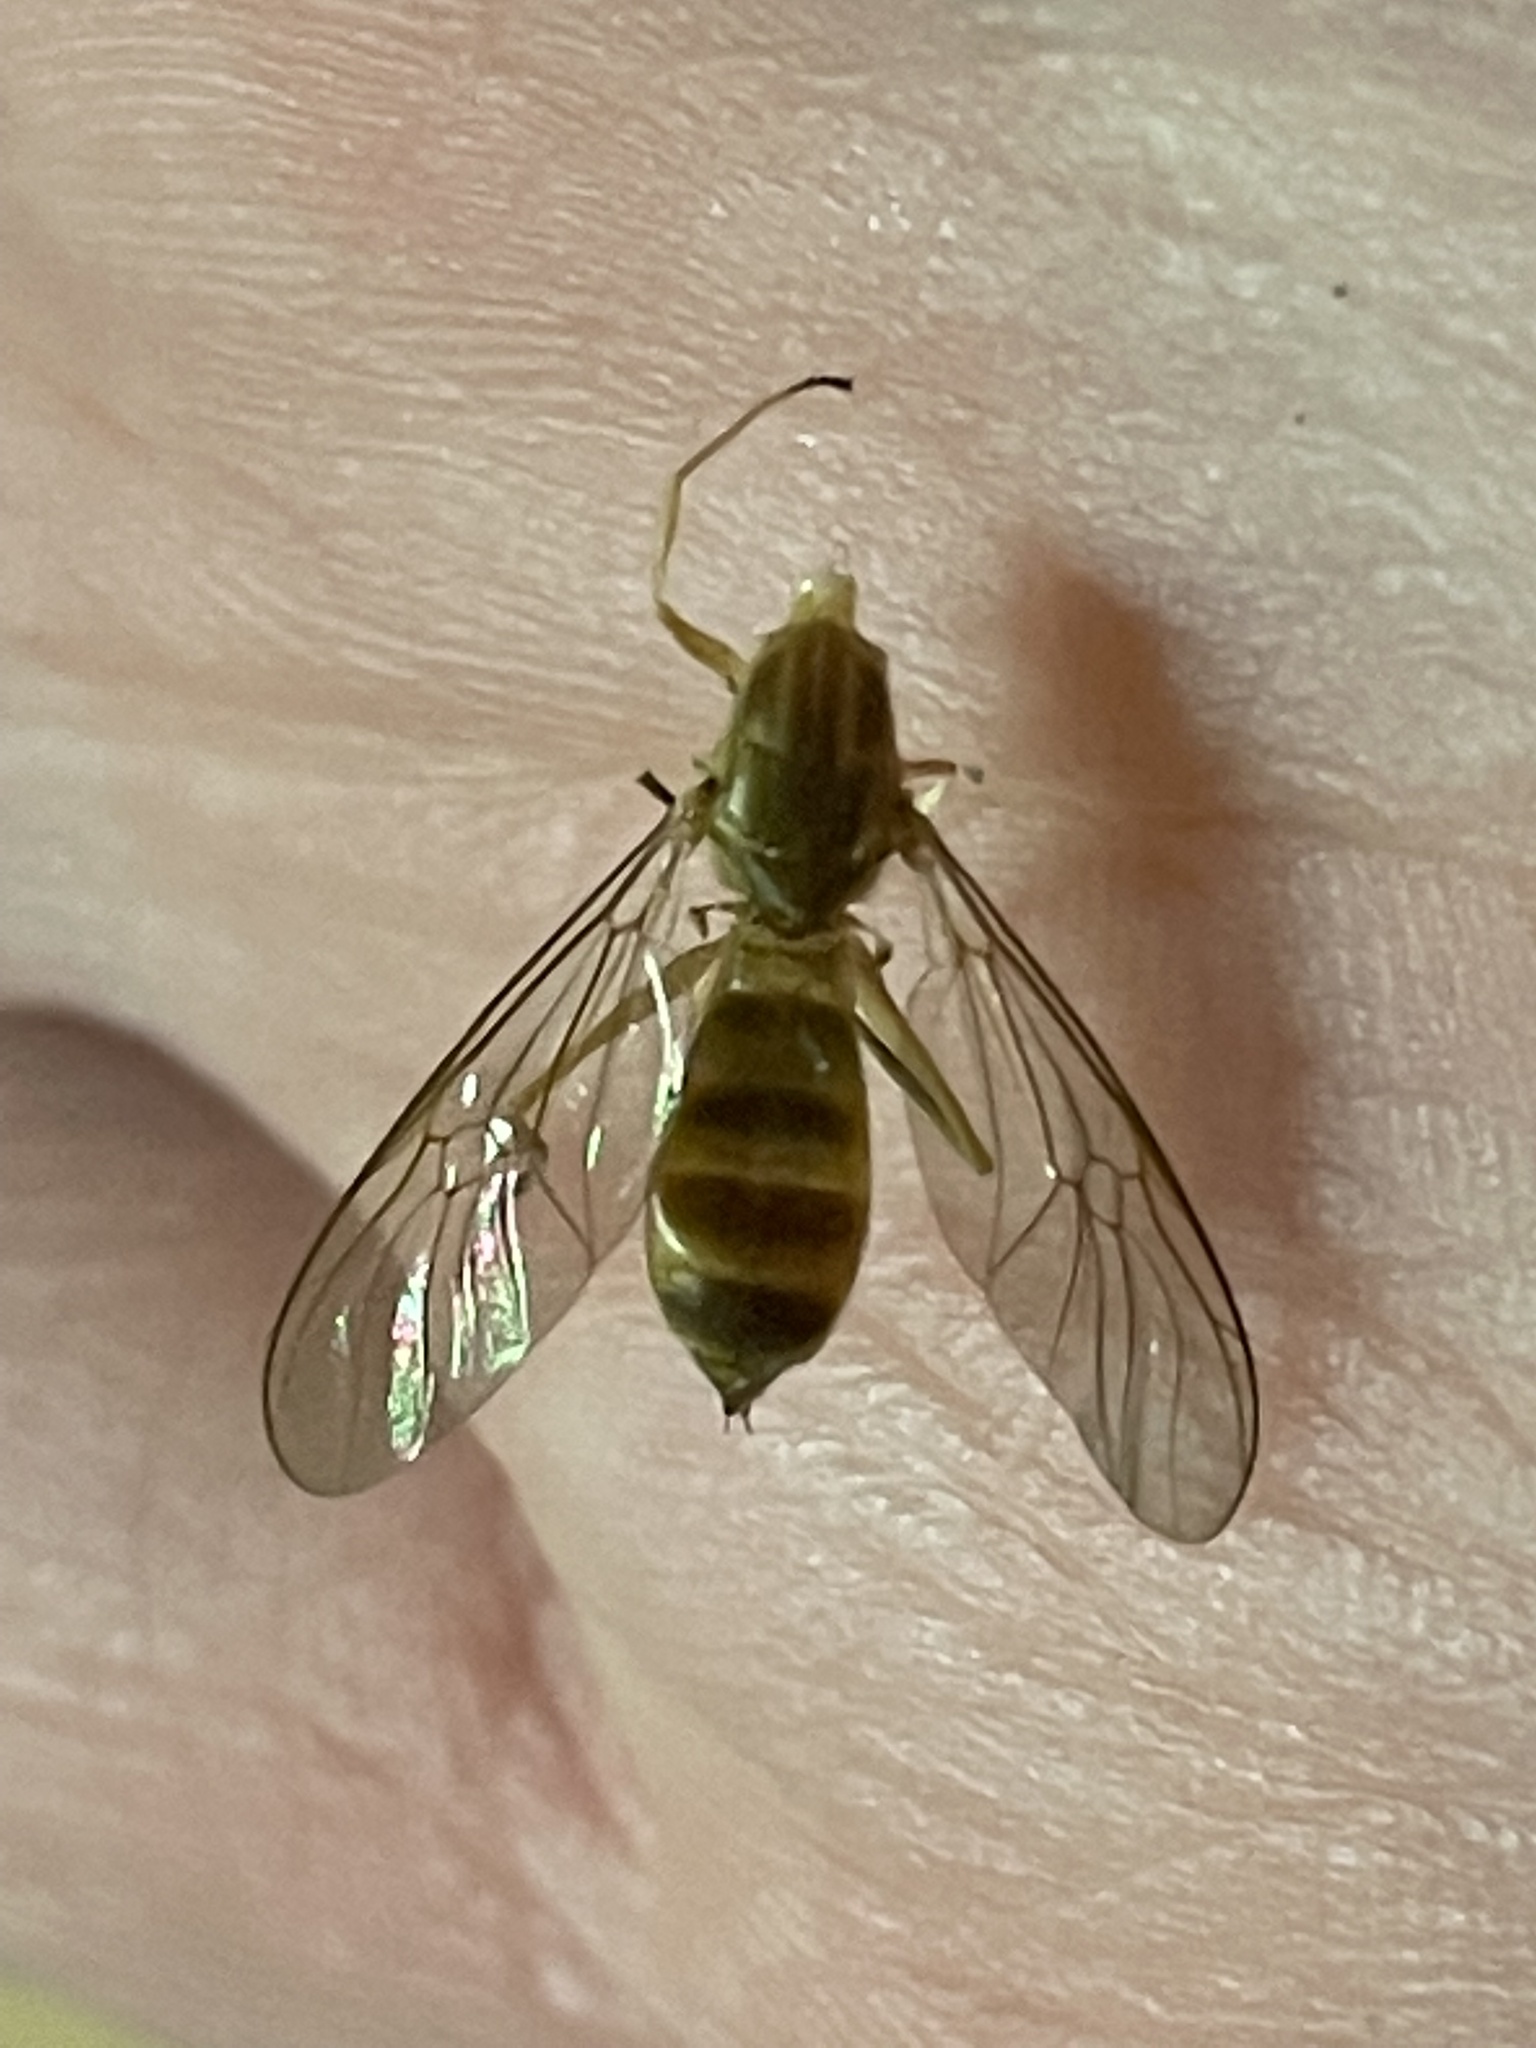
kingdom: Animalia
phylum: Arthropoda
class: Insecta
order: Diptera
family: Stratiomyidae
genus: Ptecticus
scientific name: Ptecticus trivittatus
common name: Compost fly
